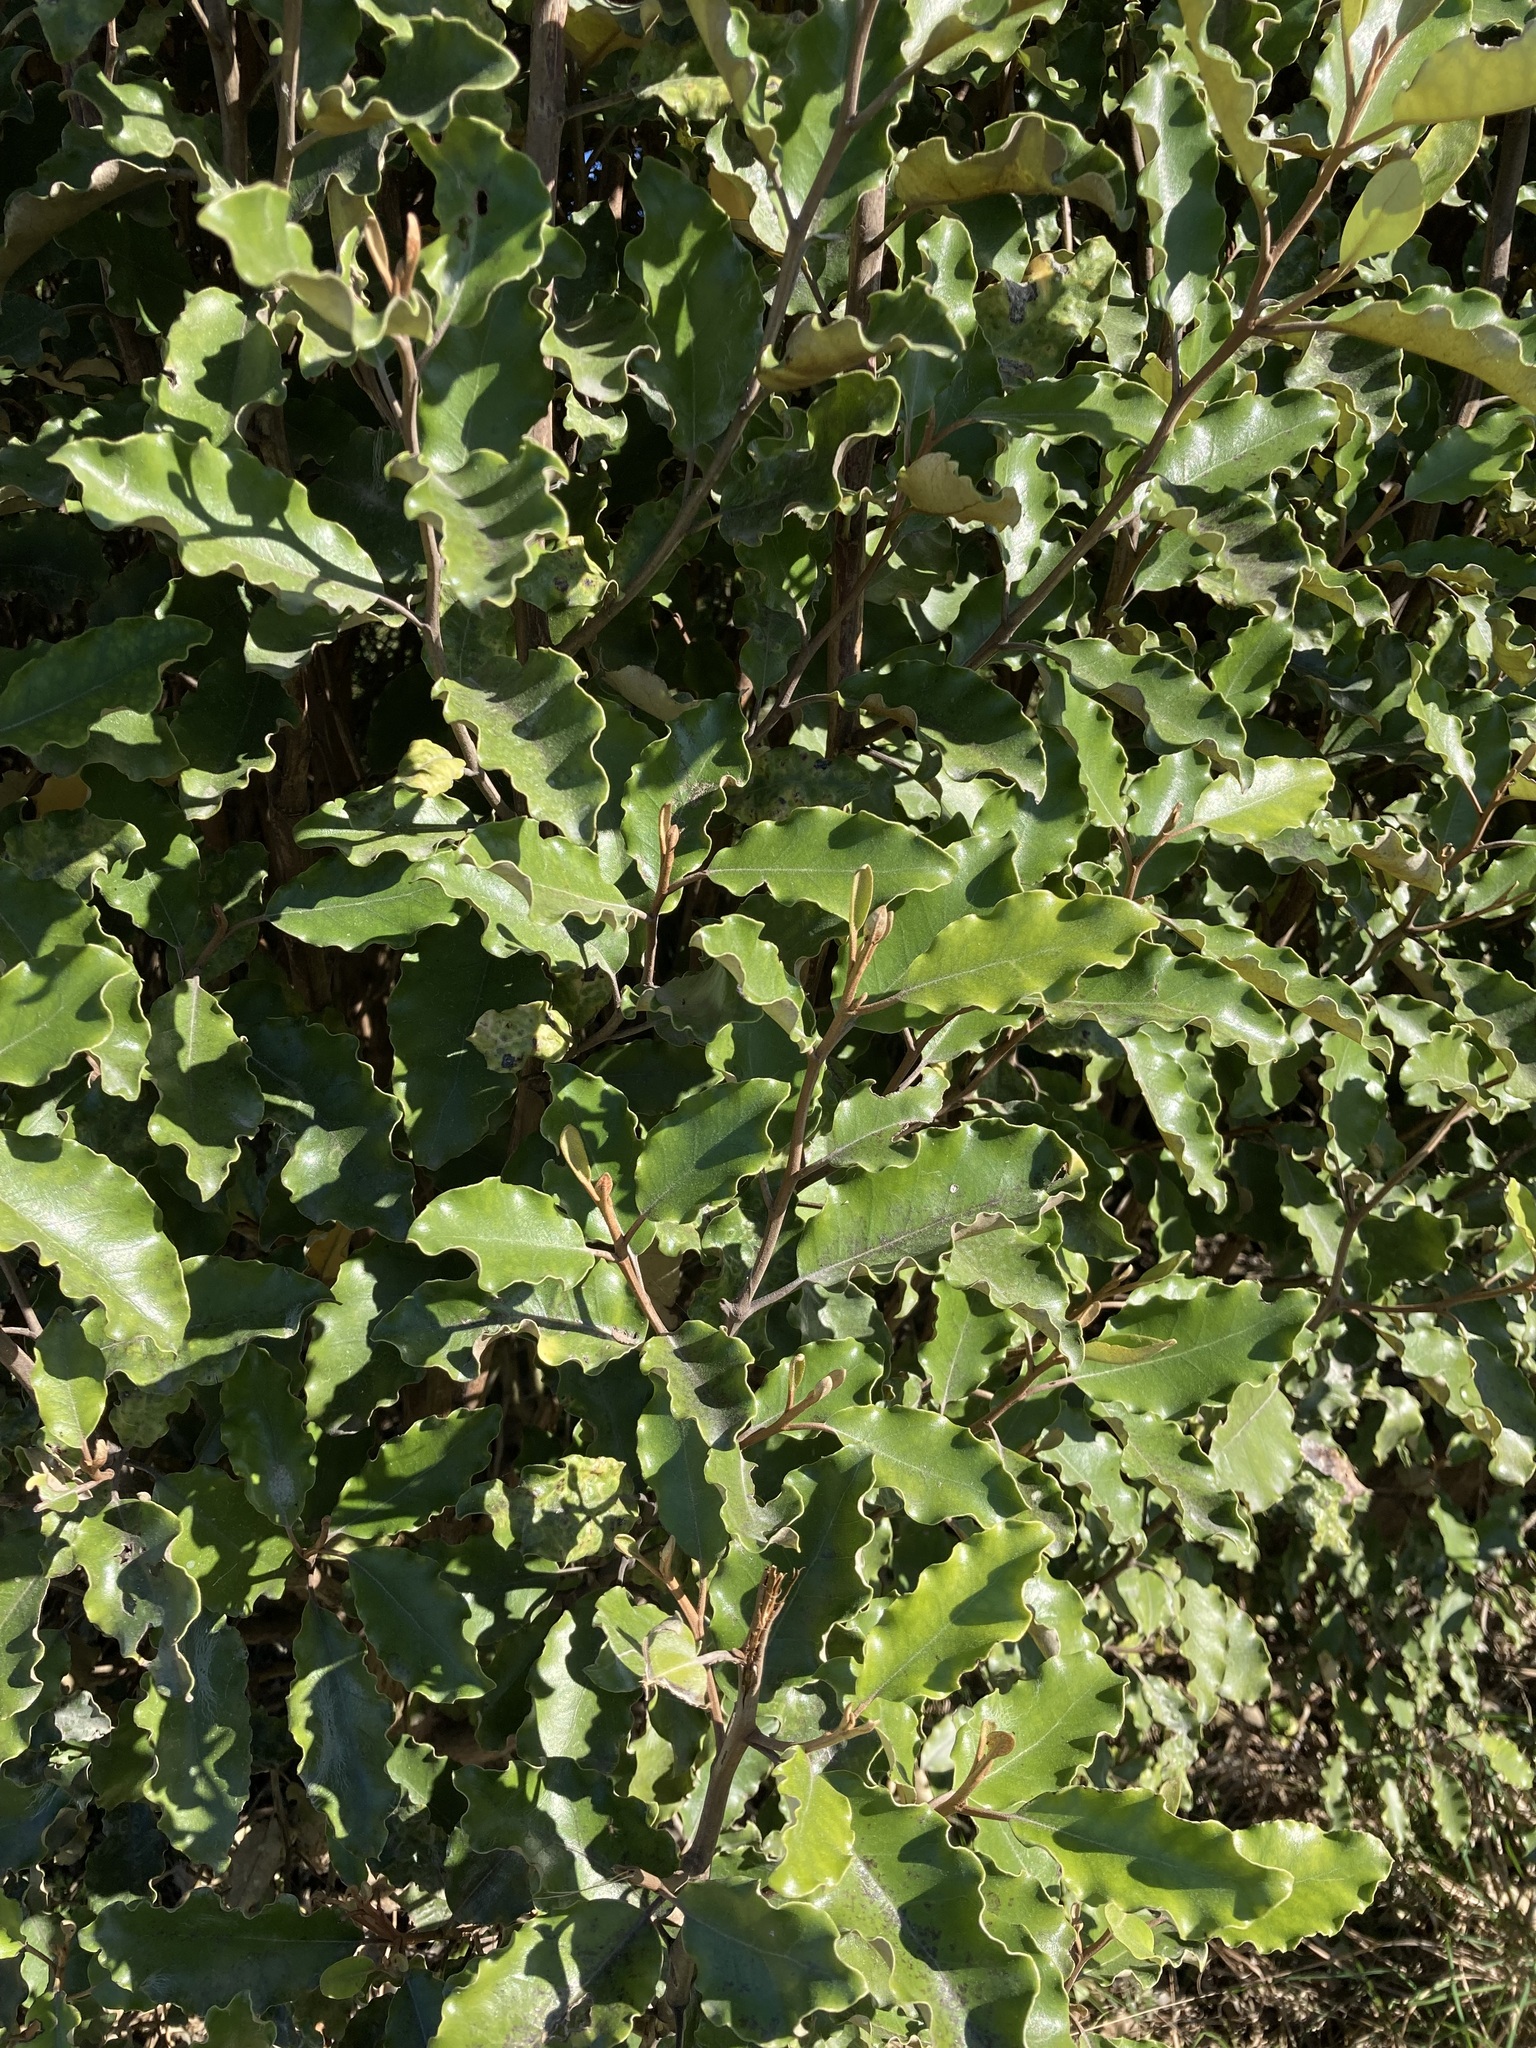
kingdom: Plantae
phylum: Tracheophyta
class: Magnoliopsida
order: Asterales
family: Asteraceae
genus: Olearia
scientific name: Olearia paniculata
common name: Akiraho
